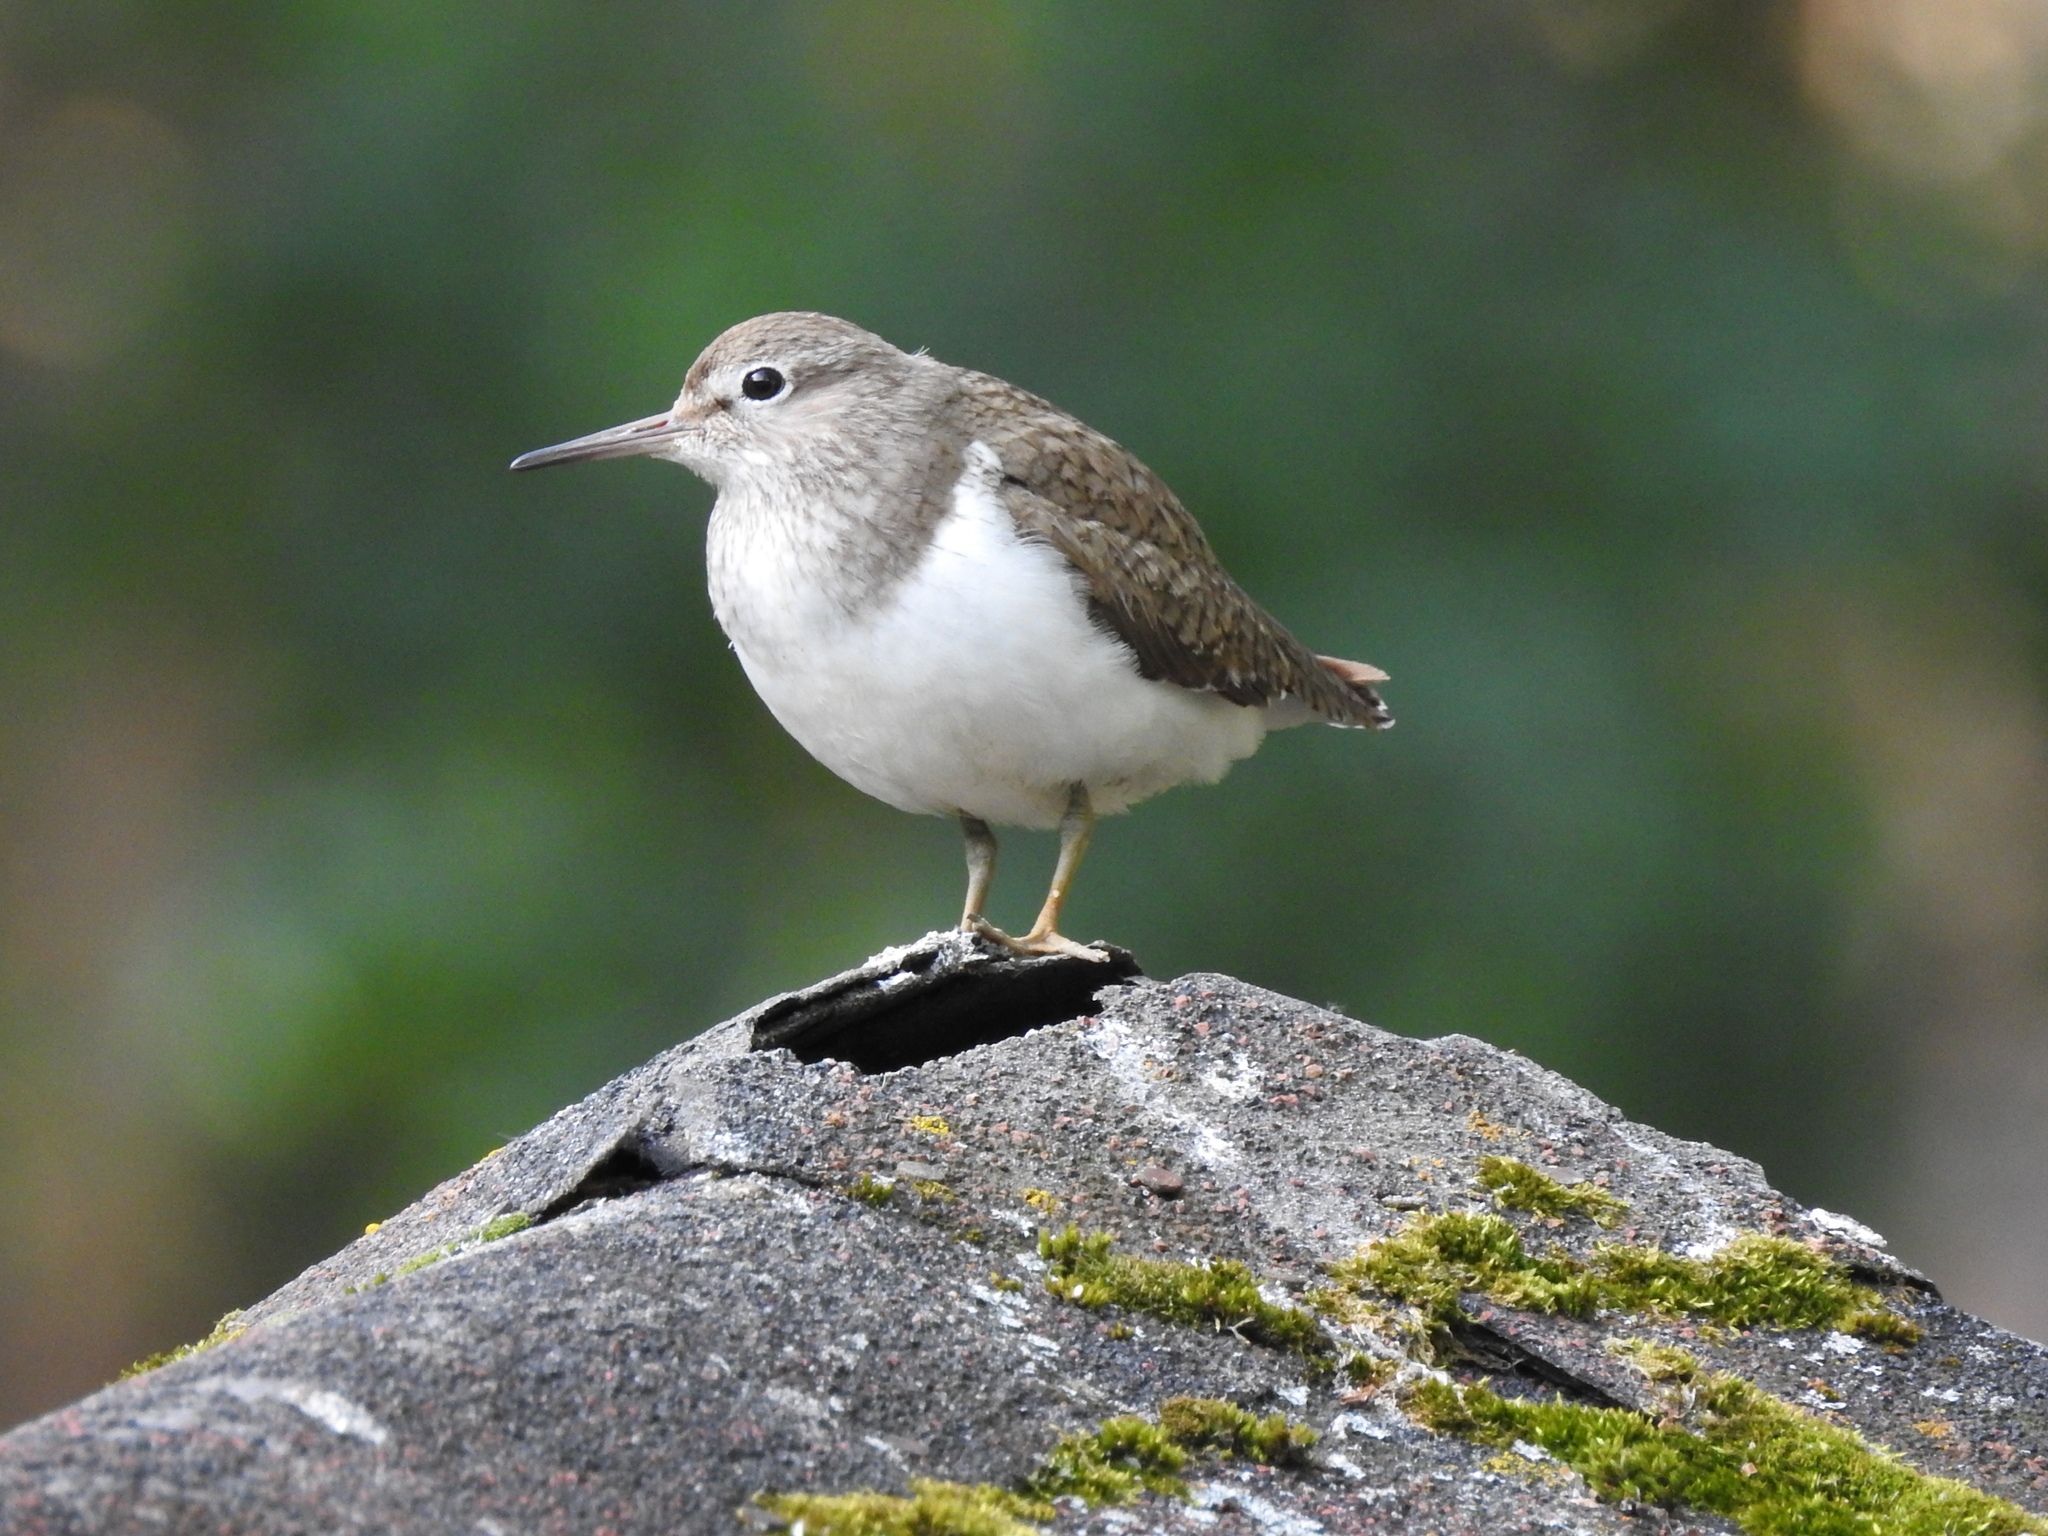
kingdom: Animalia
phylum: Chordata
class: Aves
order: Charadriiformes
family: Scolopacidae
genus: Actitis
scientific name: Actitis hypoleucos
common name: Common sandpiper
